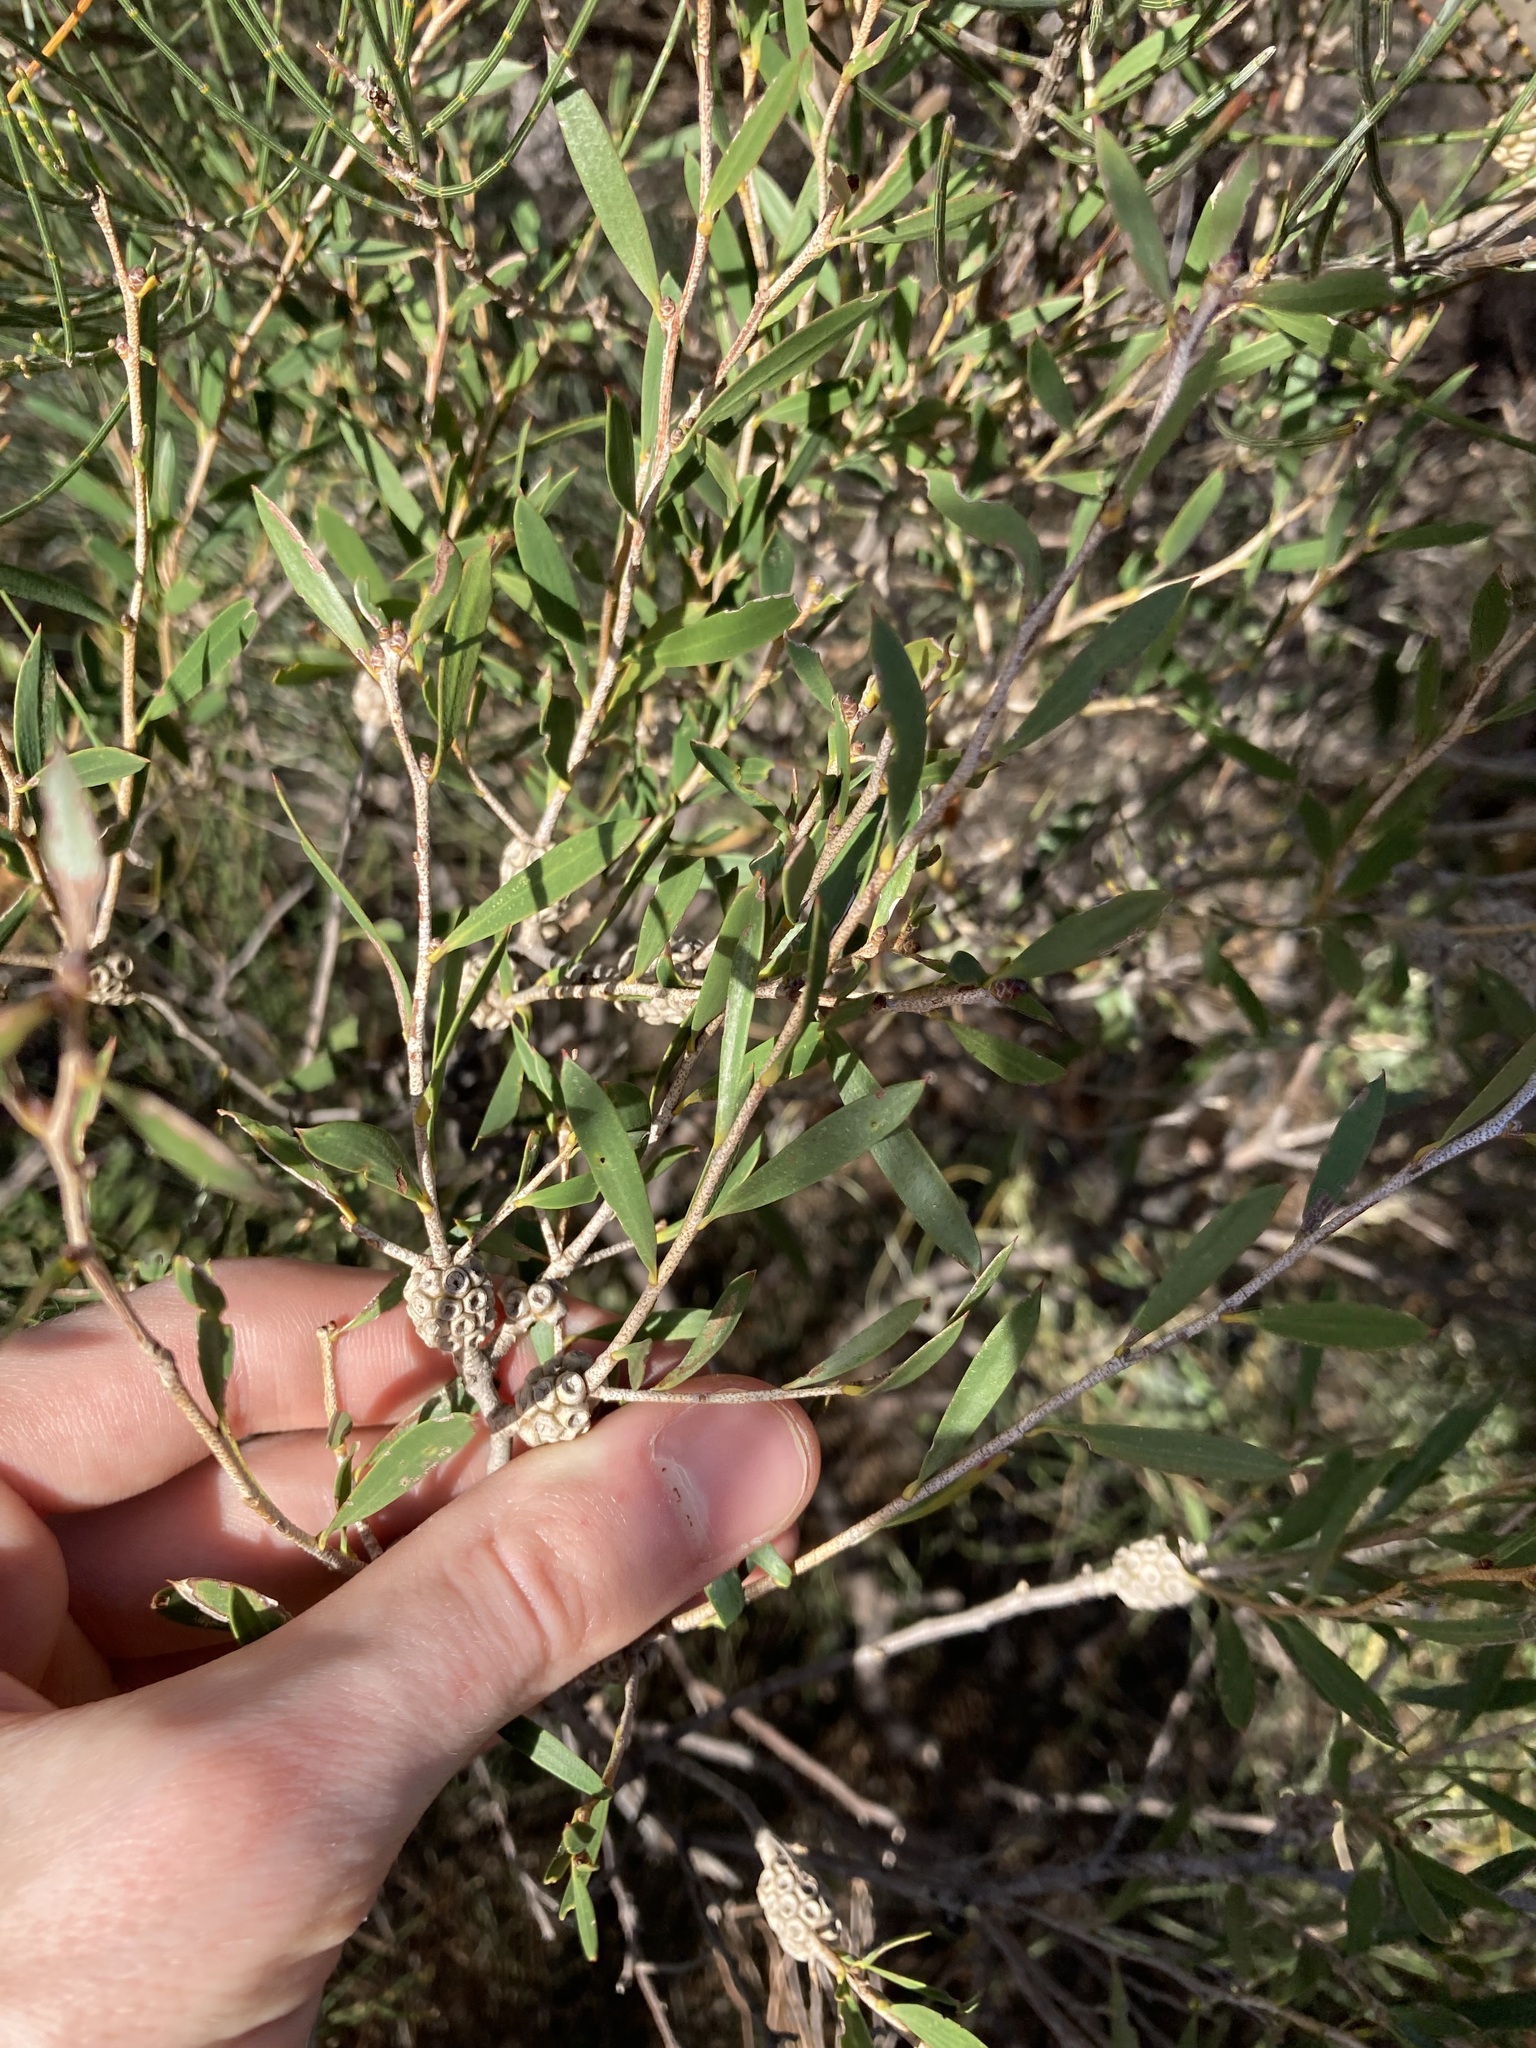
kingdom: Plantae
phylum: Tracheophyta
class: Magnoliopsida
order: Myrtales
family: Myrtaceae
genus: Melaleuca
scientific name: Melaleuca campanae
